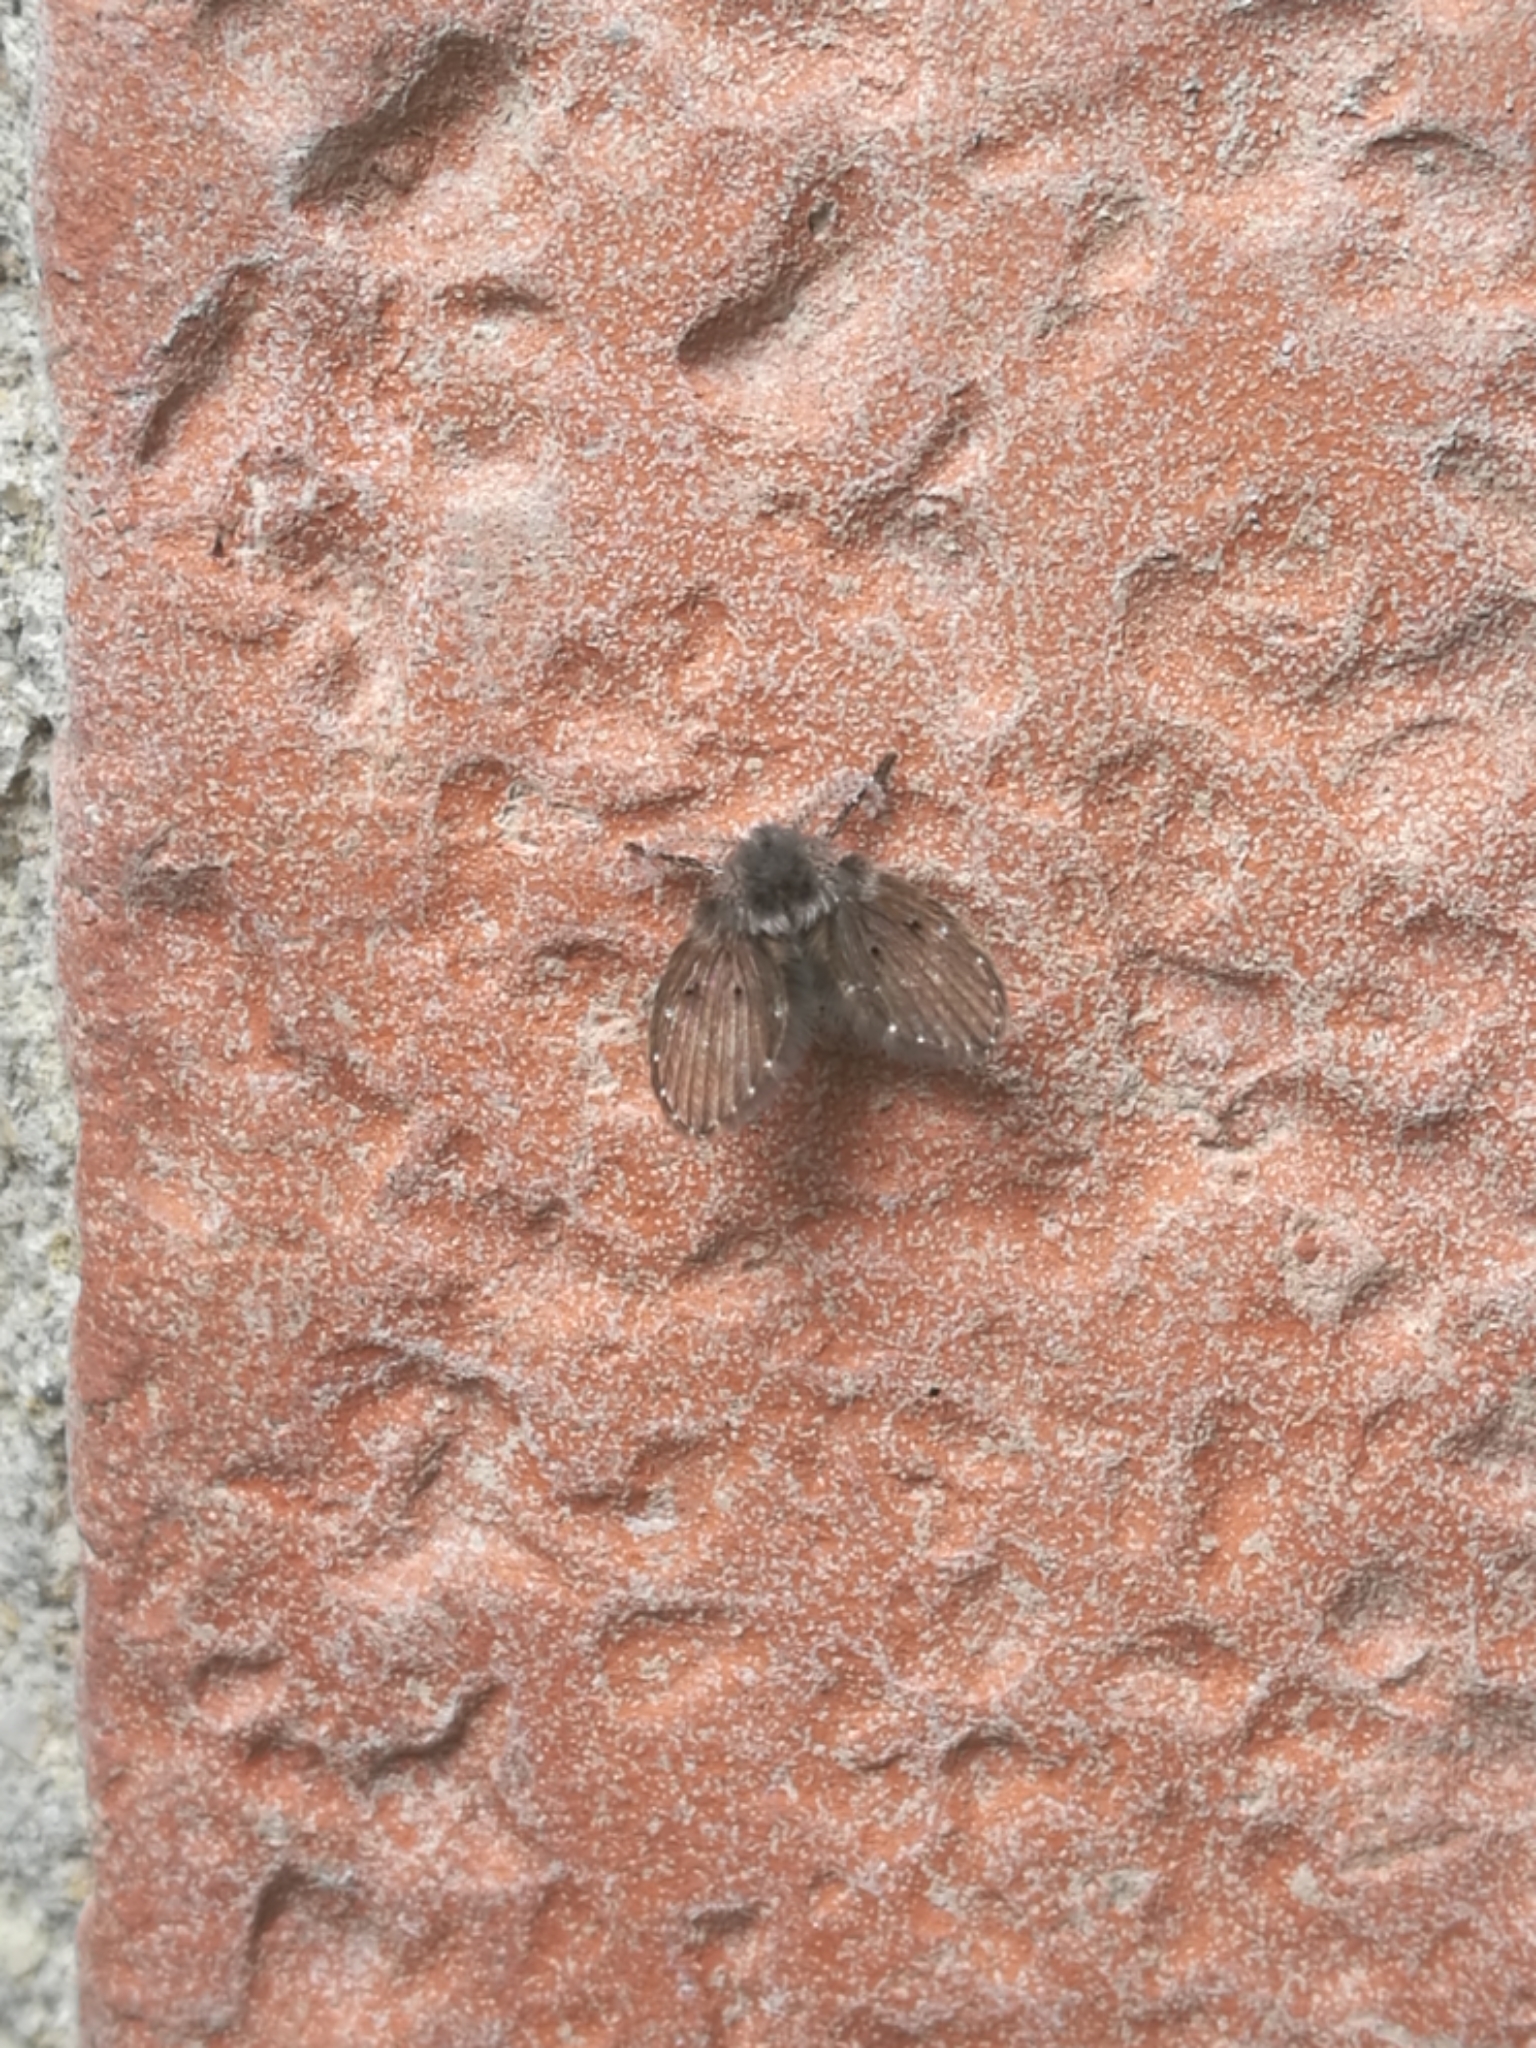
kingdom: Animalia
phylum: Arthropoda
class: Insecta
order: Diptera
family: Psychodidae
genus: Clogmia
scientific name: Clogmia albipunctatus
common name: White-spotted moth fly
